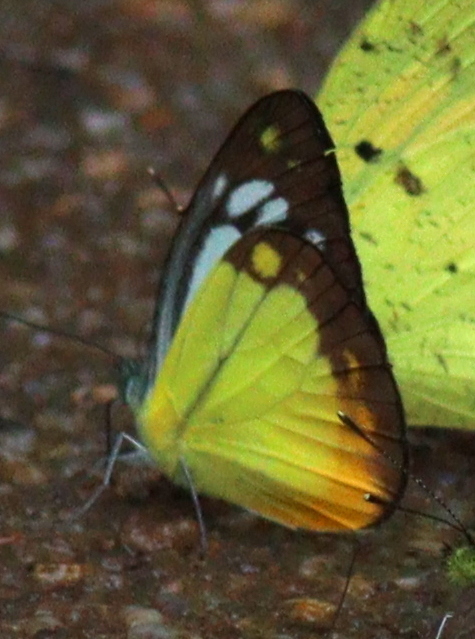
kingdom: Animalia
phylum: Arthropoda
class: Insecta
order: Lepidoptera
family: Pieridae
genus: Cepora
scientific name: Cepora iudith
